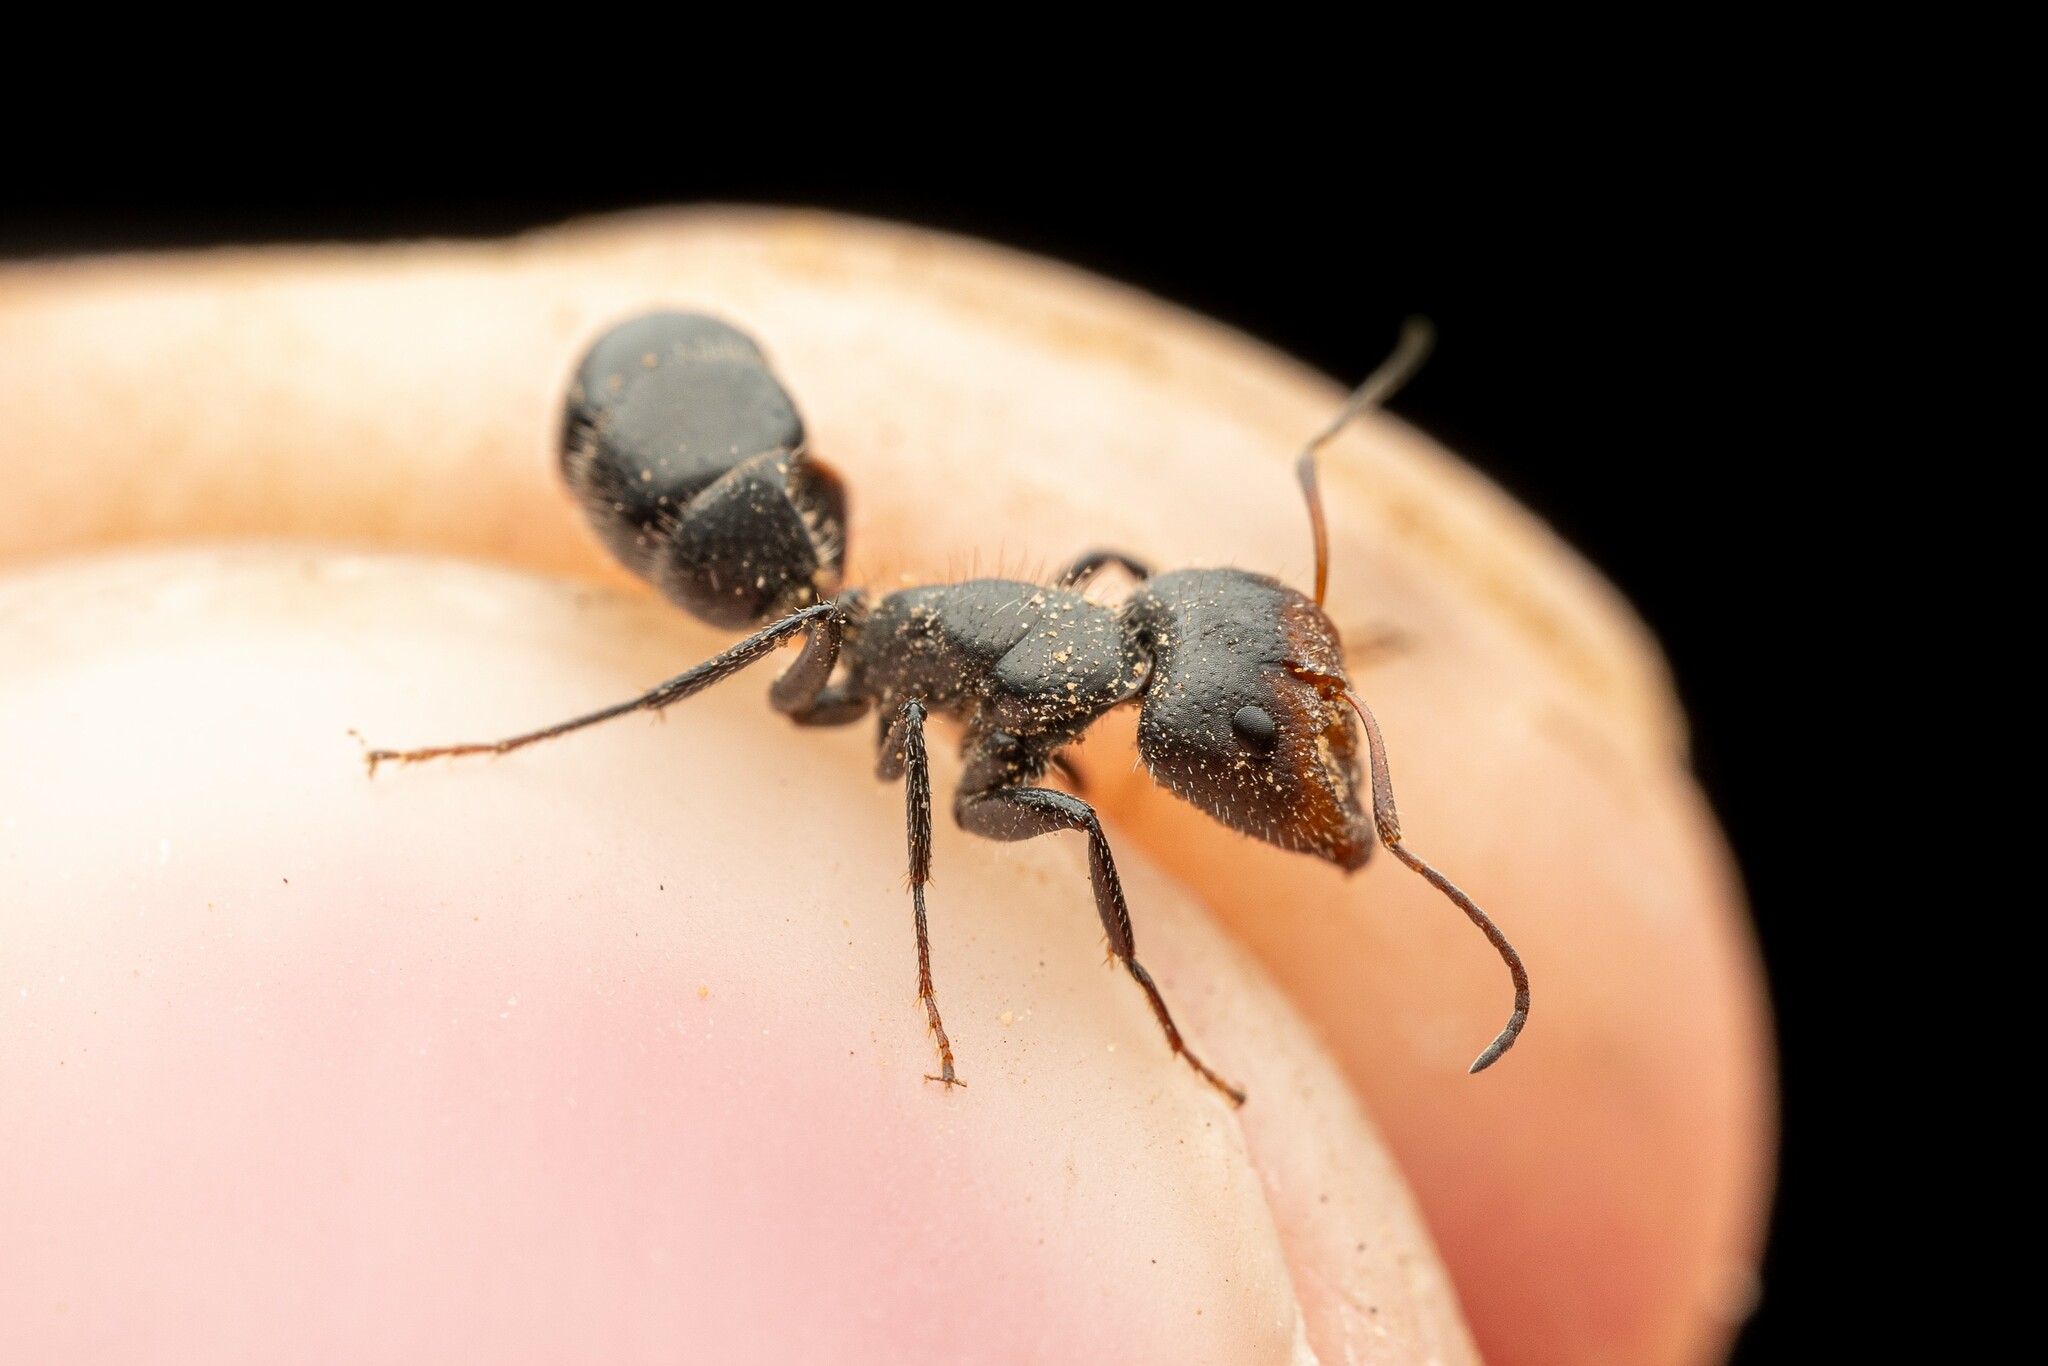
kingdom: Animalia
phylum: Arthropoda
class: Insecta
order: Hymenoptera
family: Formicidae
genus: Camponotus
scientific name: Camponotus ulcerosus
